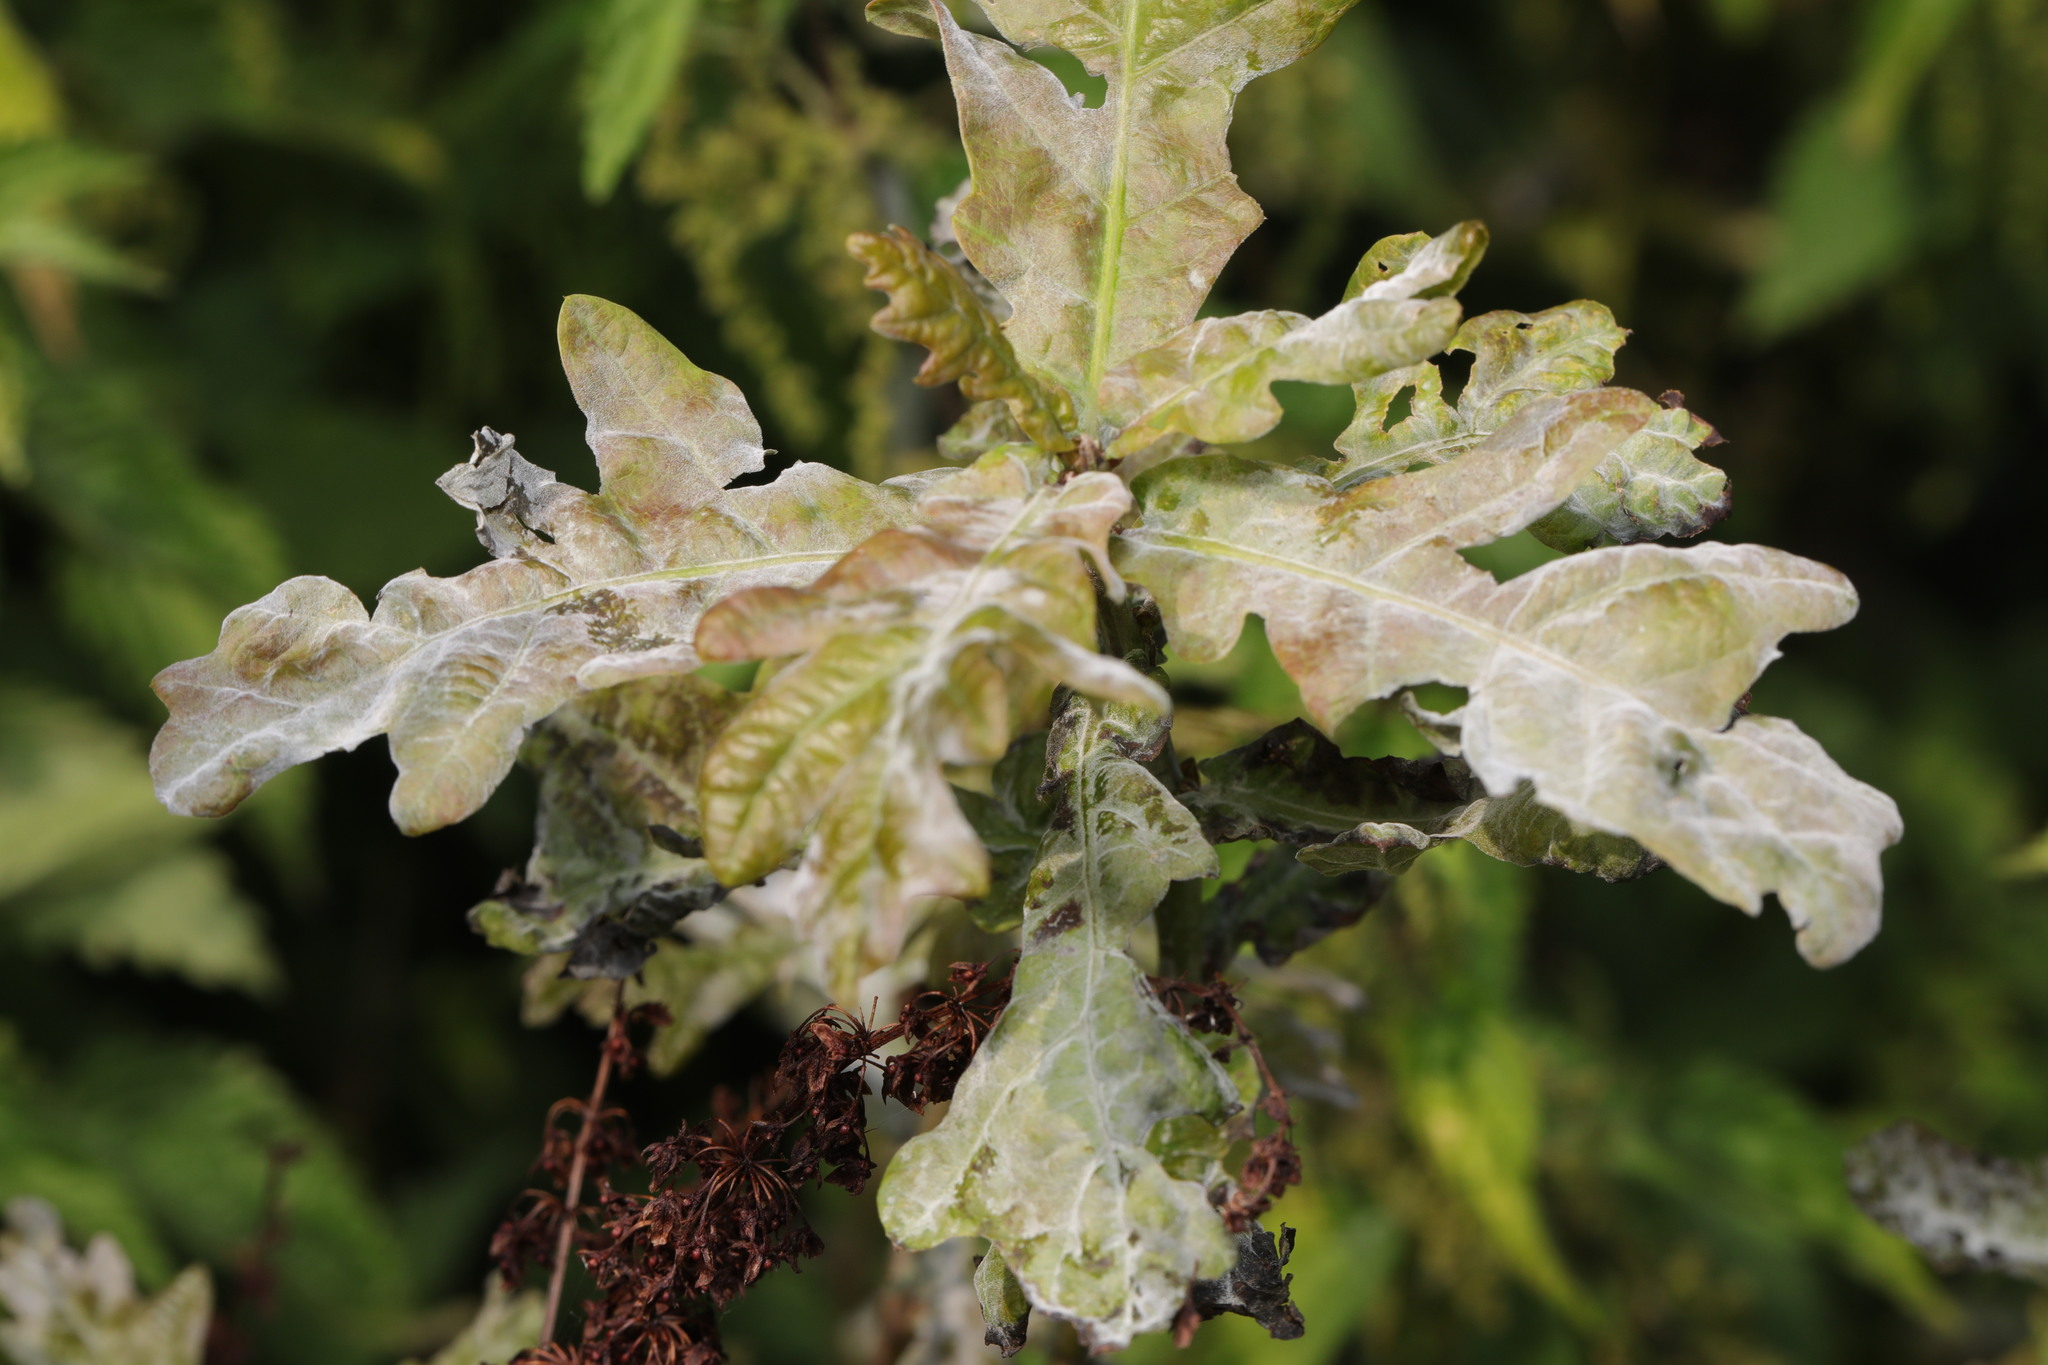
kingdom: Fungi
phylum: Ascomycota
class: Leotiomycetes
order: Helotiales
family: Erysiphaceae
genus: Erysiphe
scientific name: Erysiphe alphitoides
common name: Oak mildew
